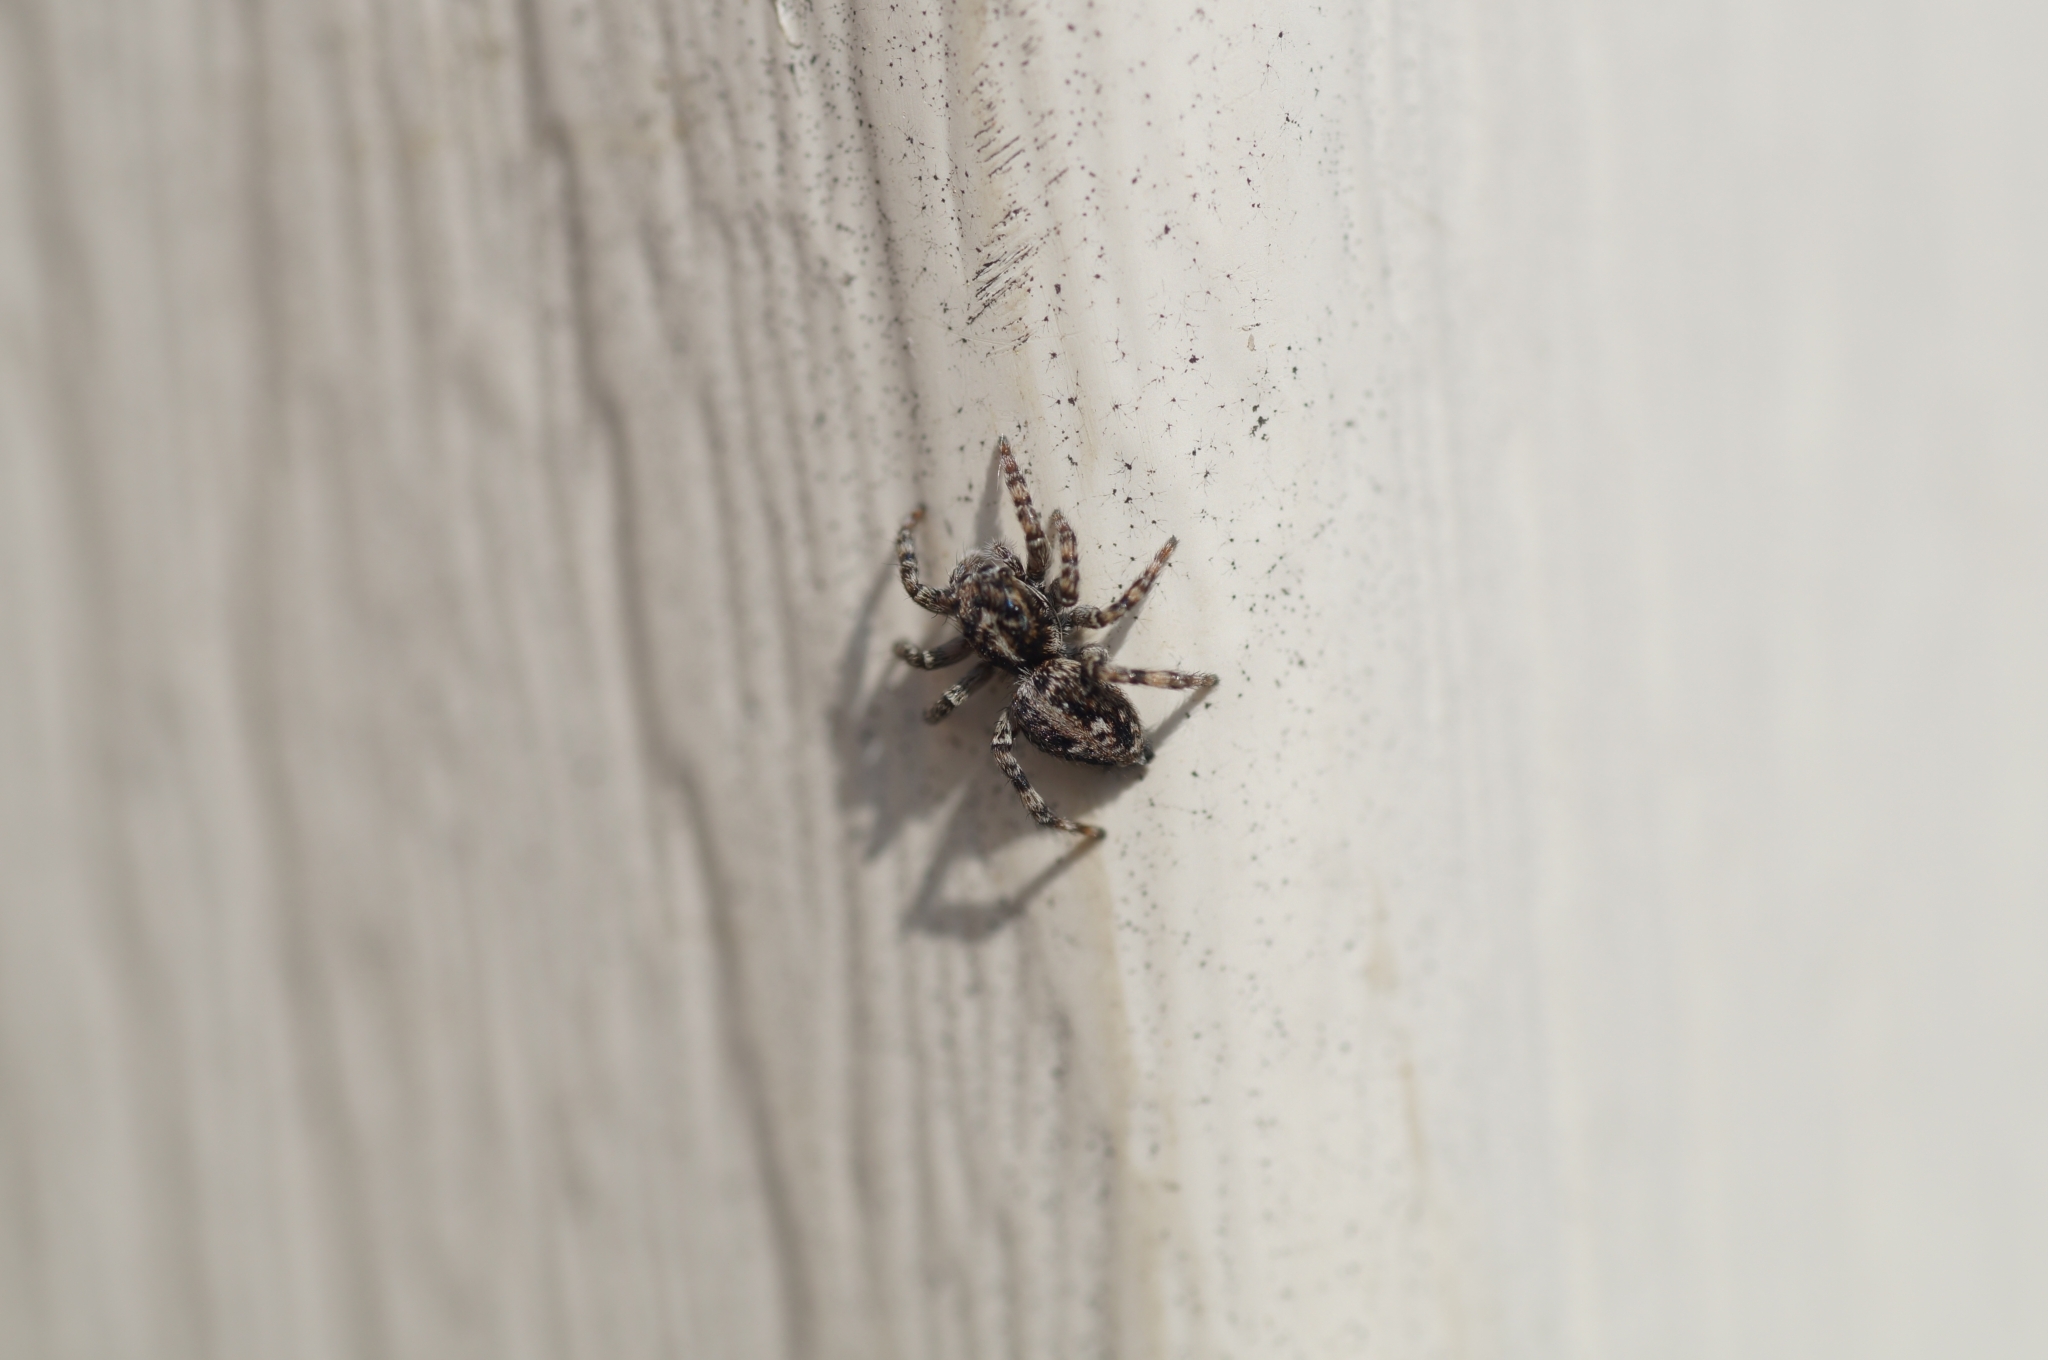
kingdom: Animalia
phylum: Arthropoda
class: Arachnida
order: Araneae
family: Salticidae
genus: Attulus
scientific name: Attulus terebratus
